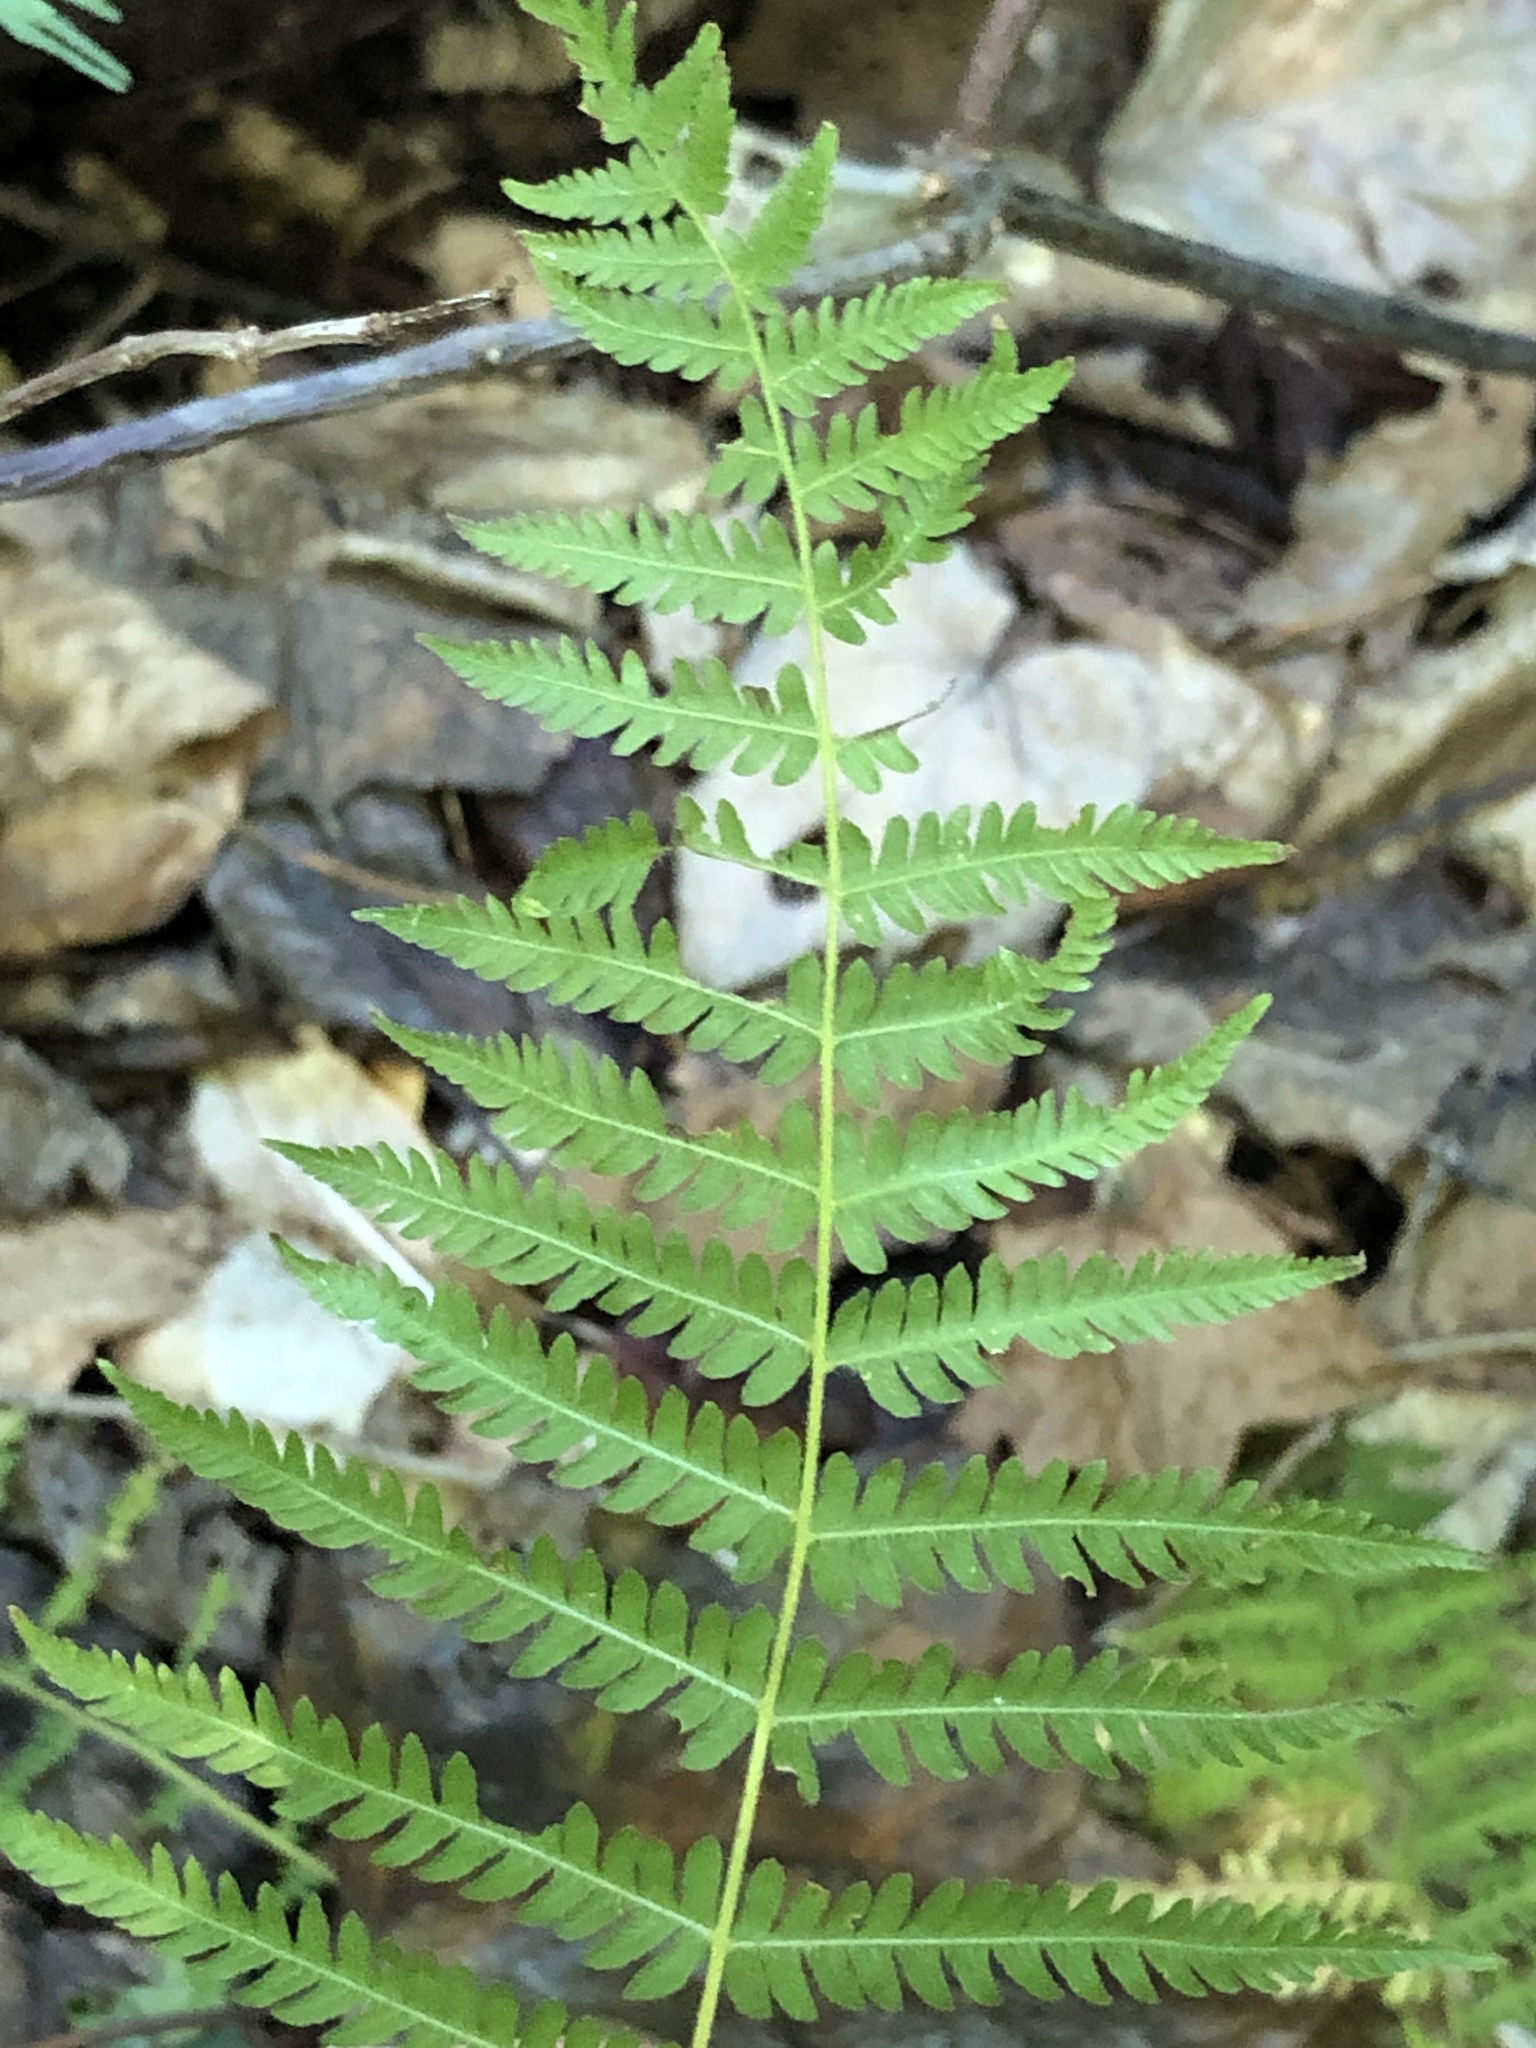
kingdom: Plantae
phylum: Tracheophyta
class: Polypodiopsida
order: Polypodiales
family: Thelypteridaceae
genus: Amauropelta
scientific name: Amauropelta noveboracensis
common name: New york fern
